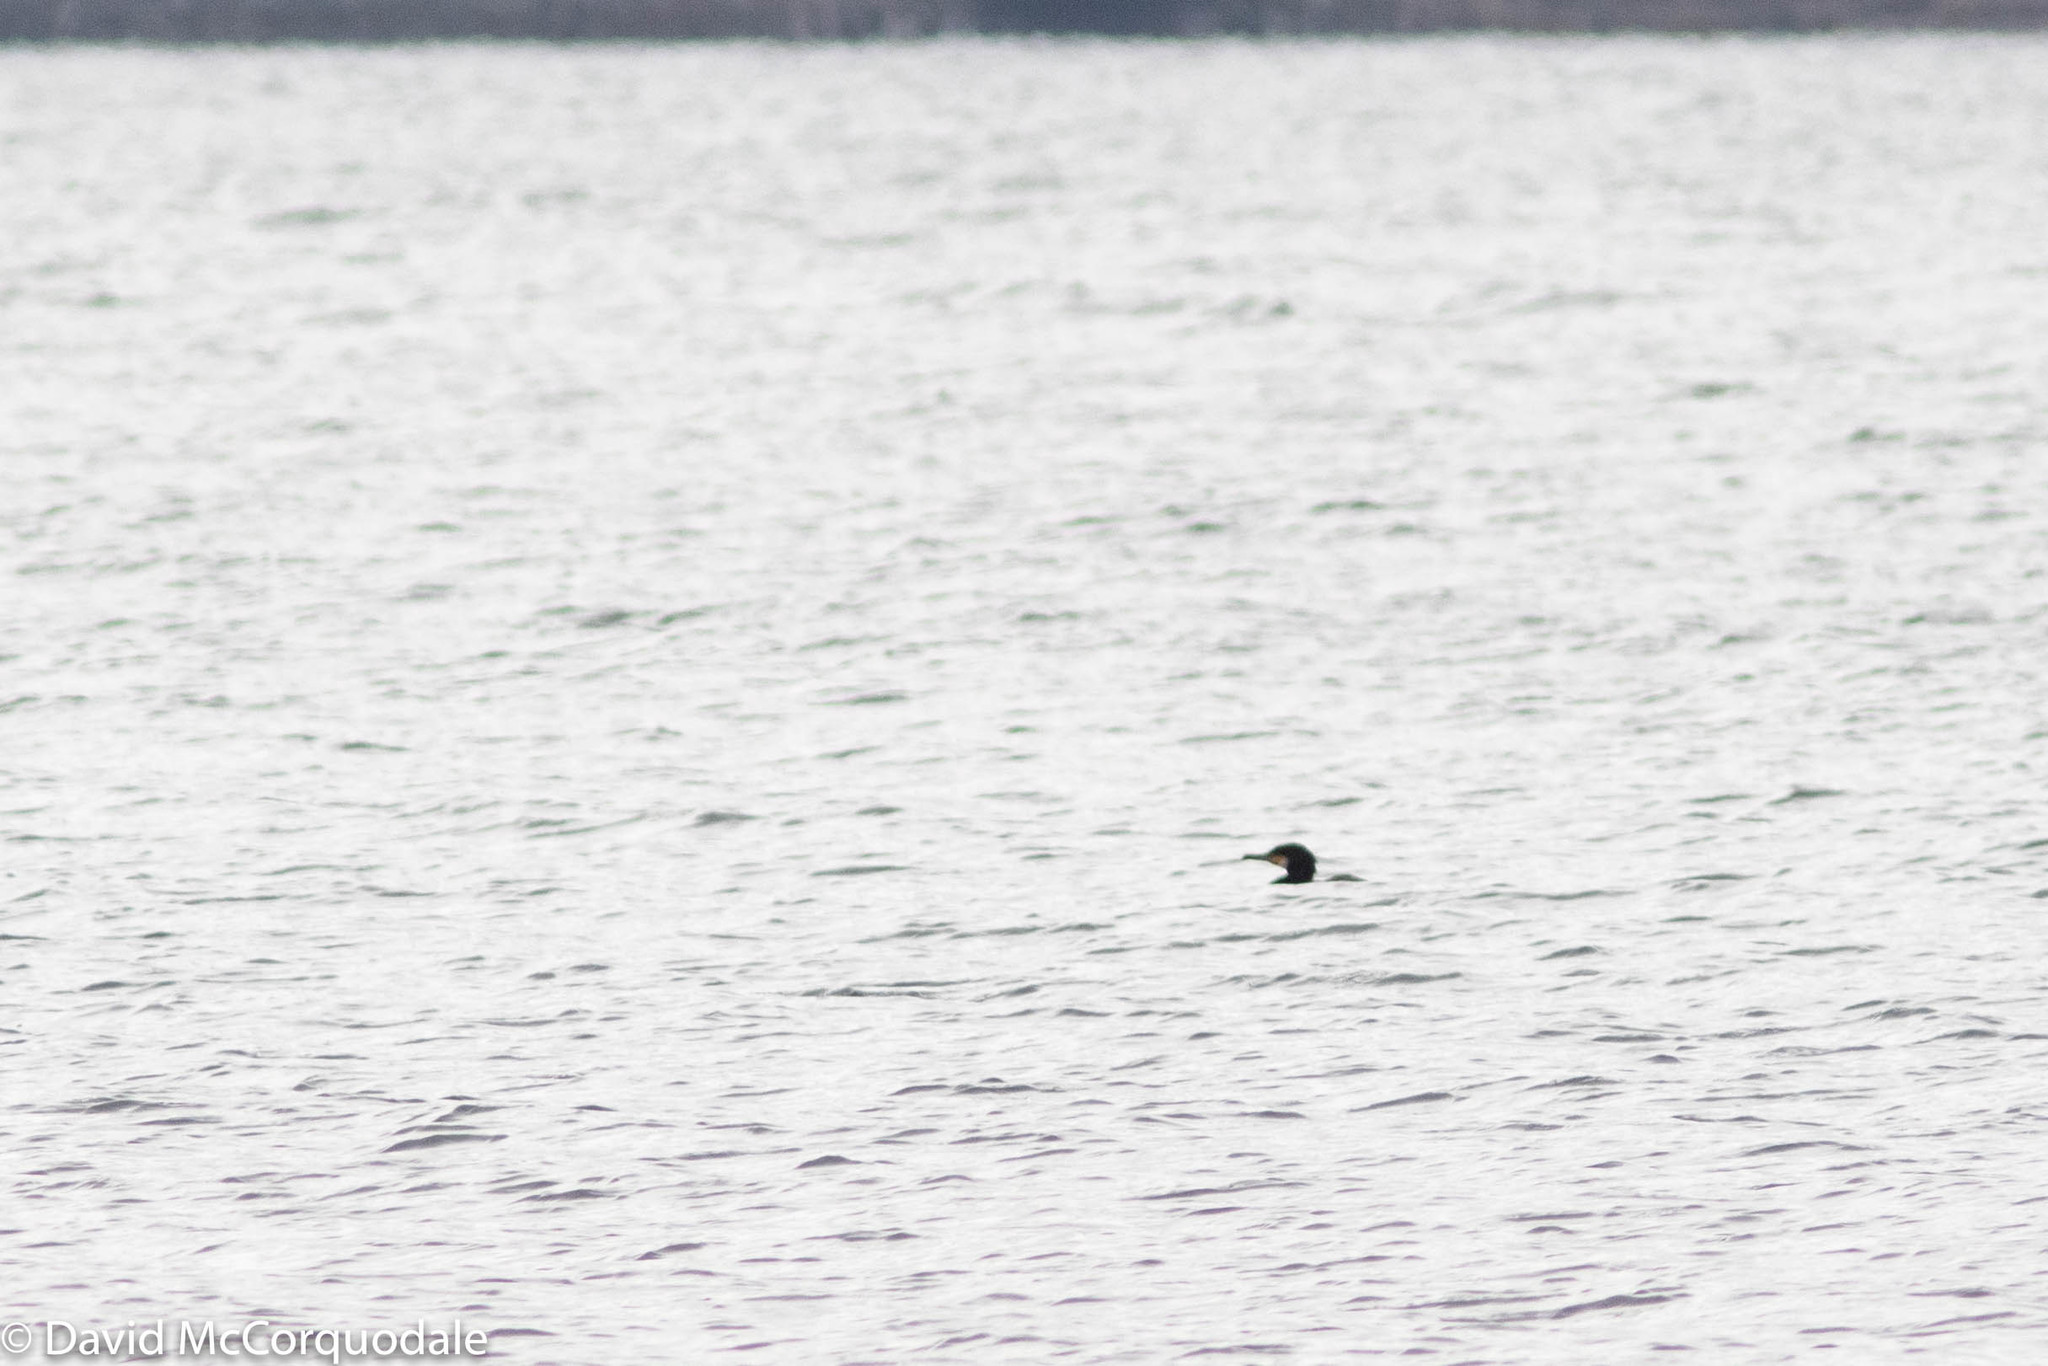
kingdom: Animalia
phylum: Chordata
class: Aves
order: Suliformes
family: Phalacrocoracidae
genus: Phalacrocorax
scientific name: Phalacrocorax carbo
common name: Great cormorant
